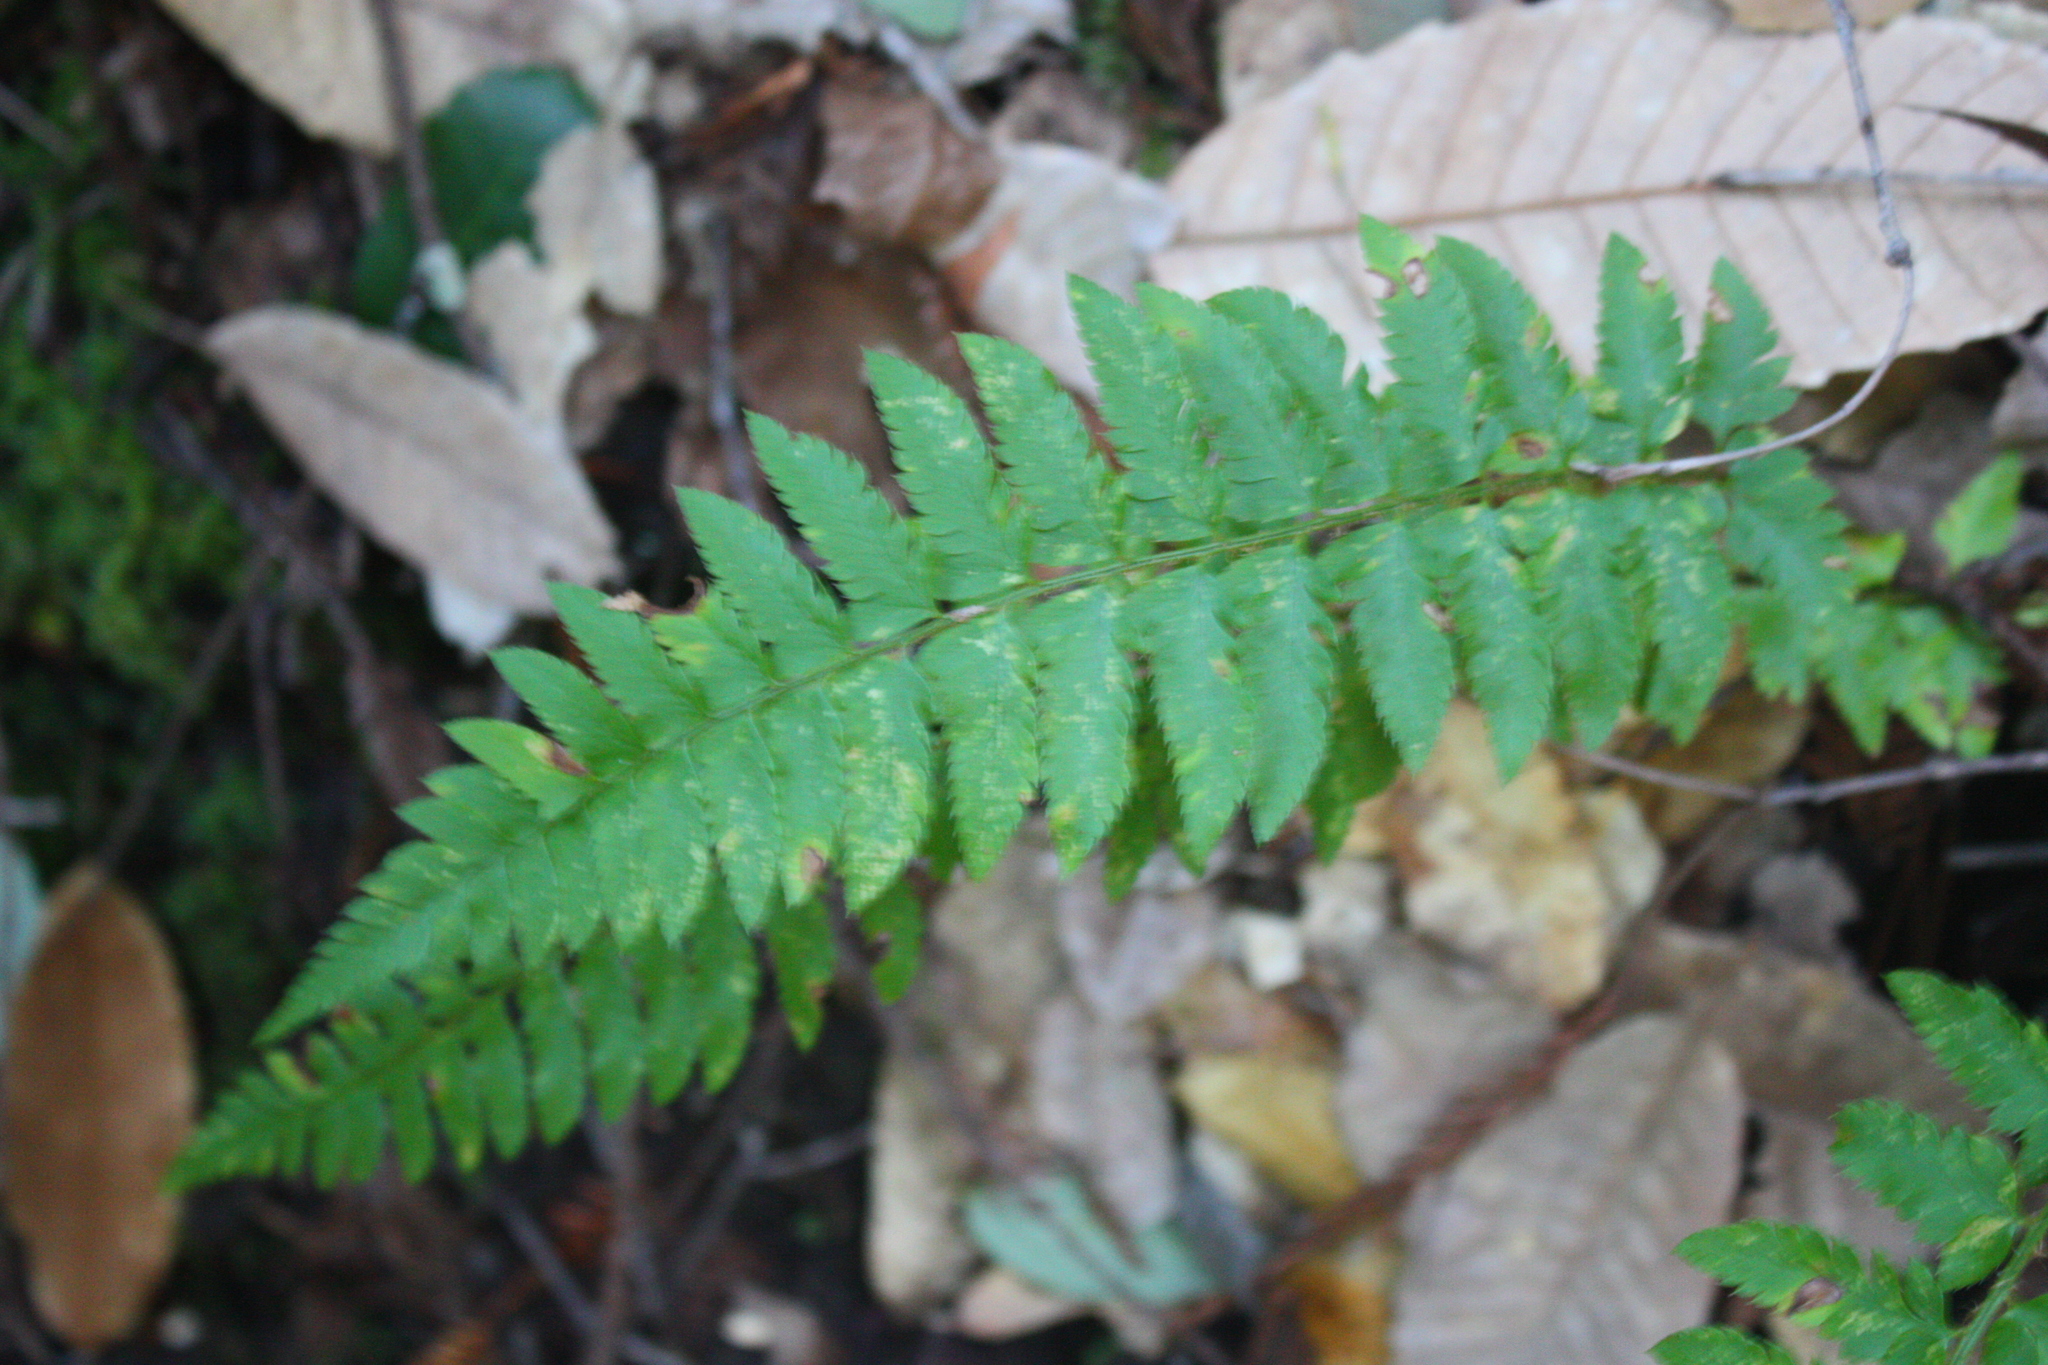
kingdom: Plantae
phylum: Tracheophyta
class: Polypodiopsida
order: Polypodiales
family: Dryopteridaceae
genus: Polystichum
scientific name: Polystichum californicum
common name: California sword fern
